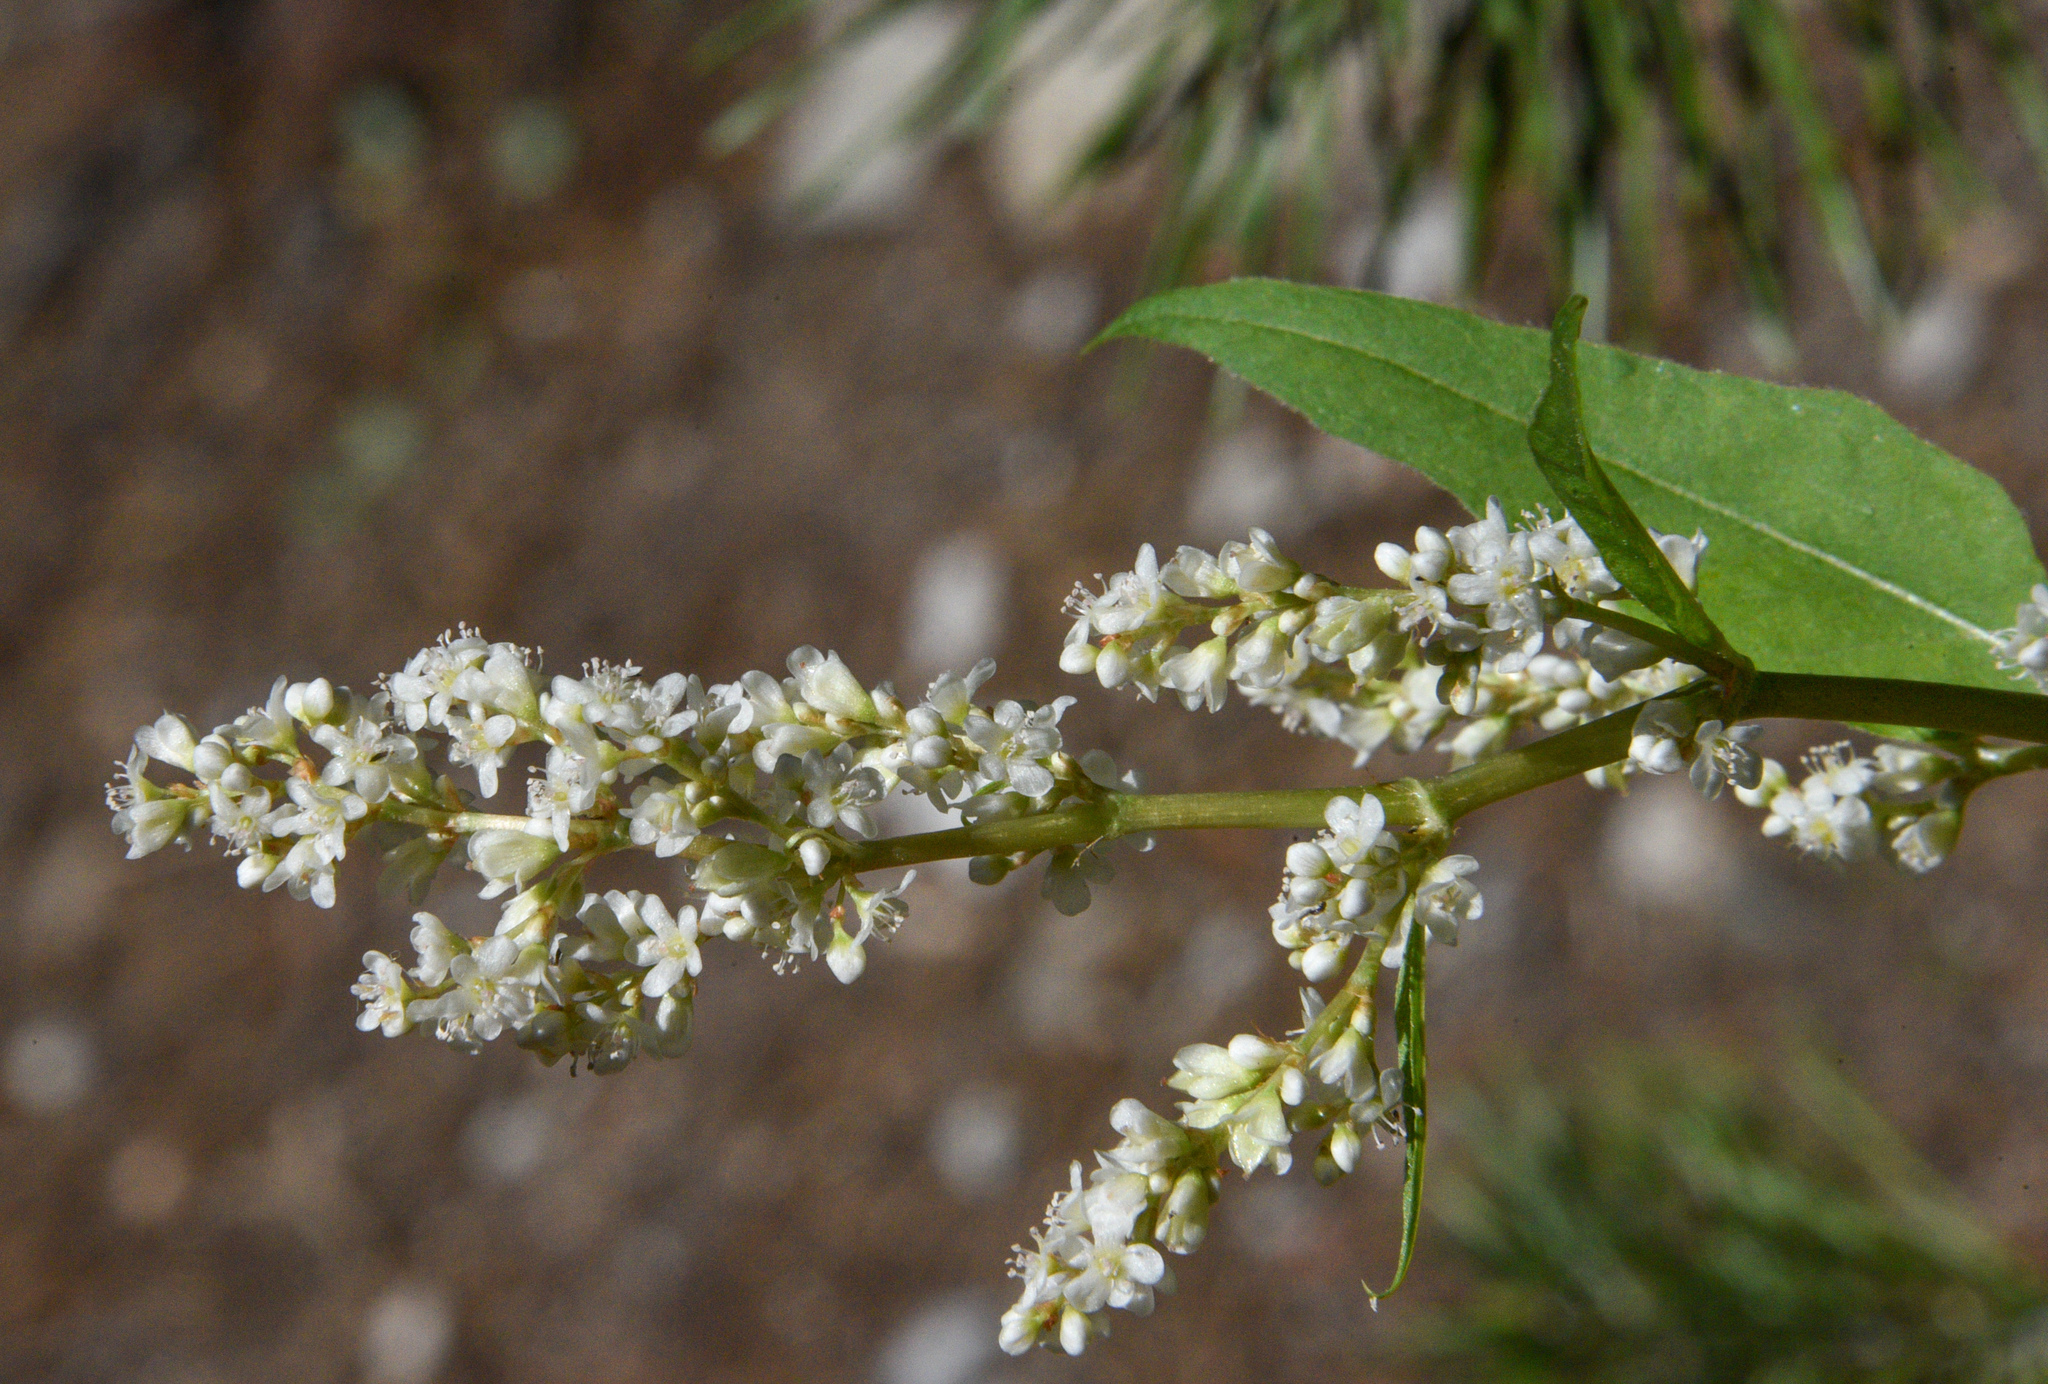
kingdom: Plantae
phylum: Tracheophyta
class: Magnoliopsida
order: Caryophyllales
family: Polygonaceae
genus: Koenigia
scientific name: Koenigia phytolaccifolia
